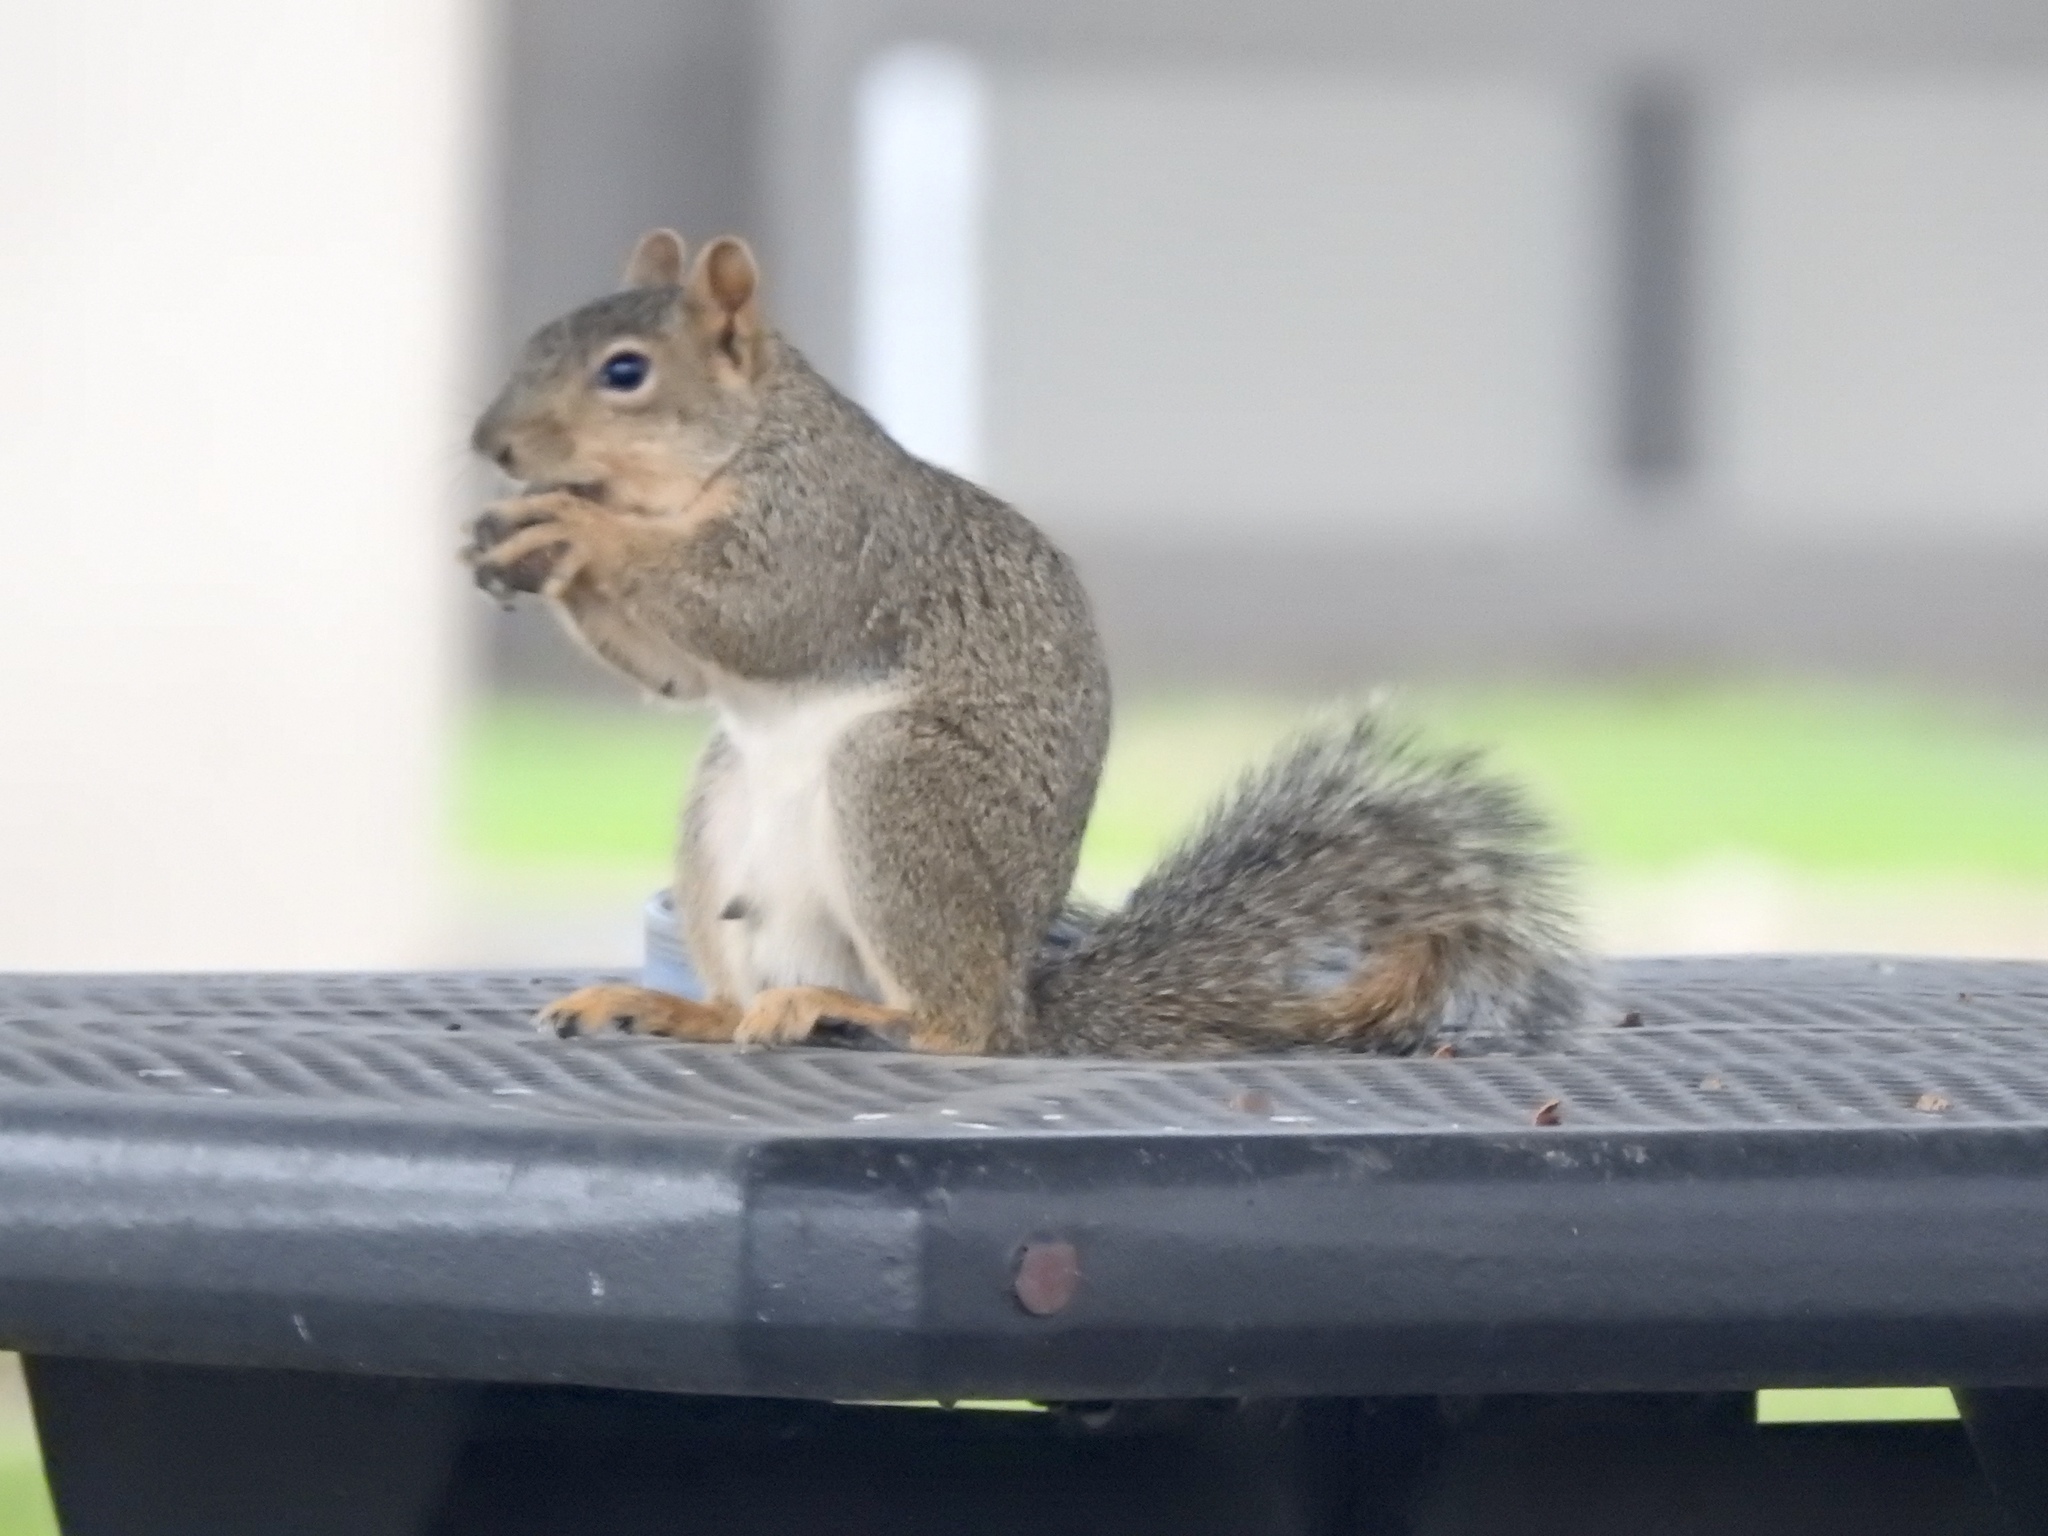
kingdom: Animalia
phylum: Chordata
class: Mammalia
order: Rodentia
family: Sciuridae
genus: Sciurus
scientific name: Sciurus niger
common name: Fox squirrel
